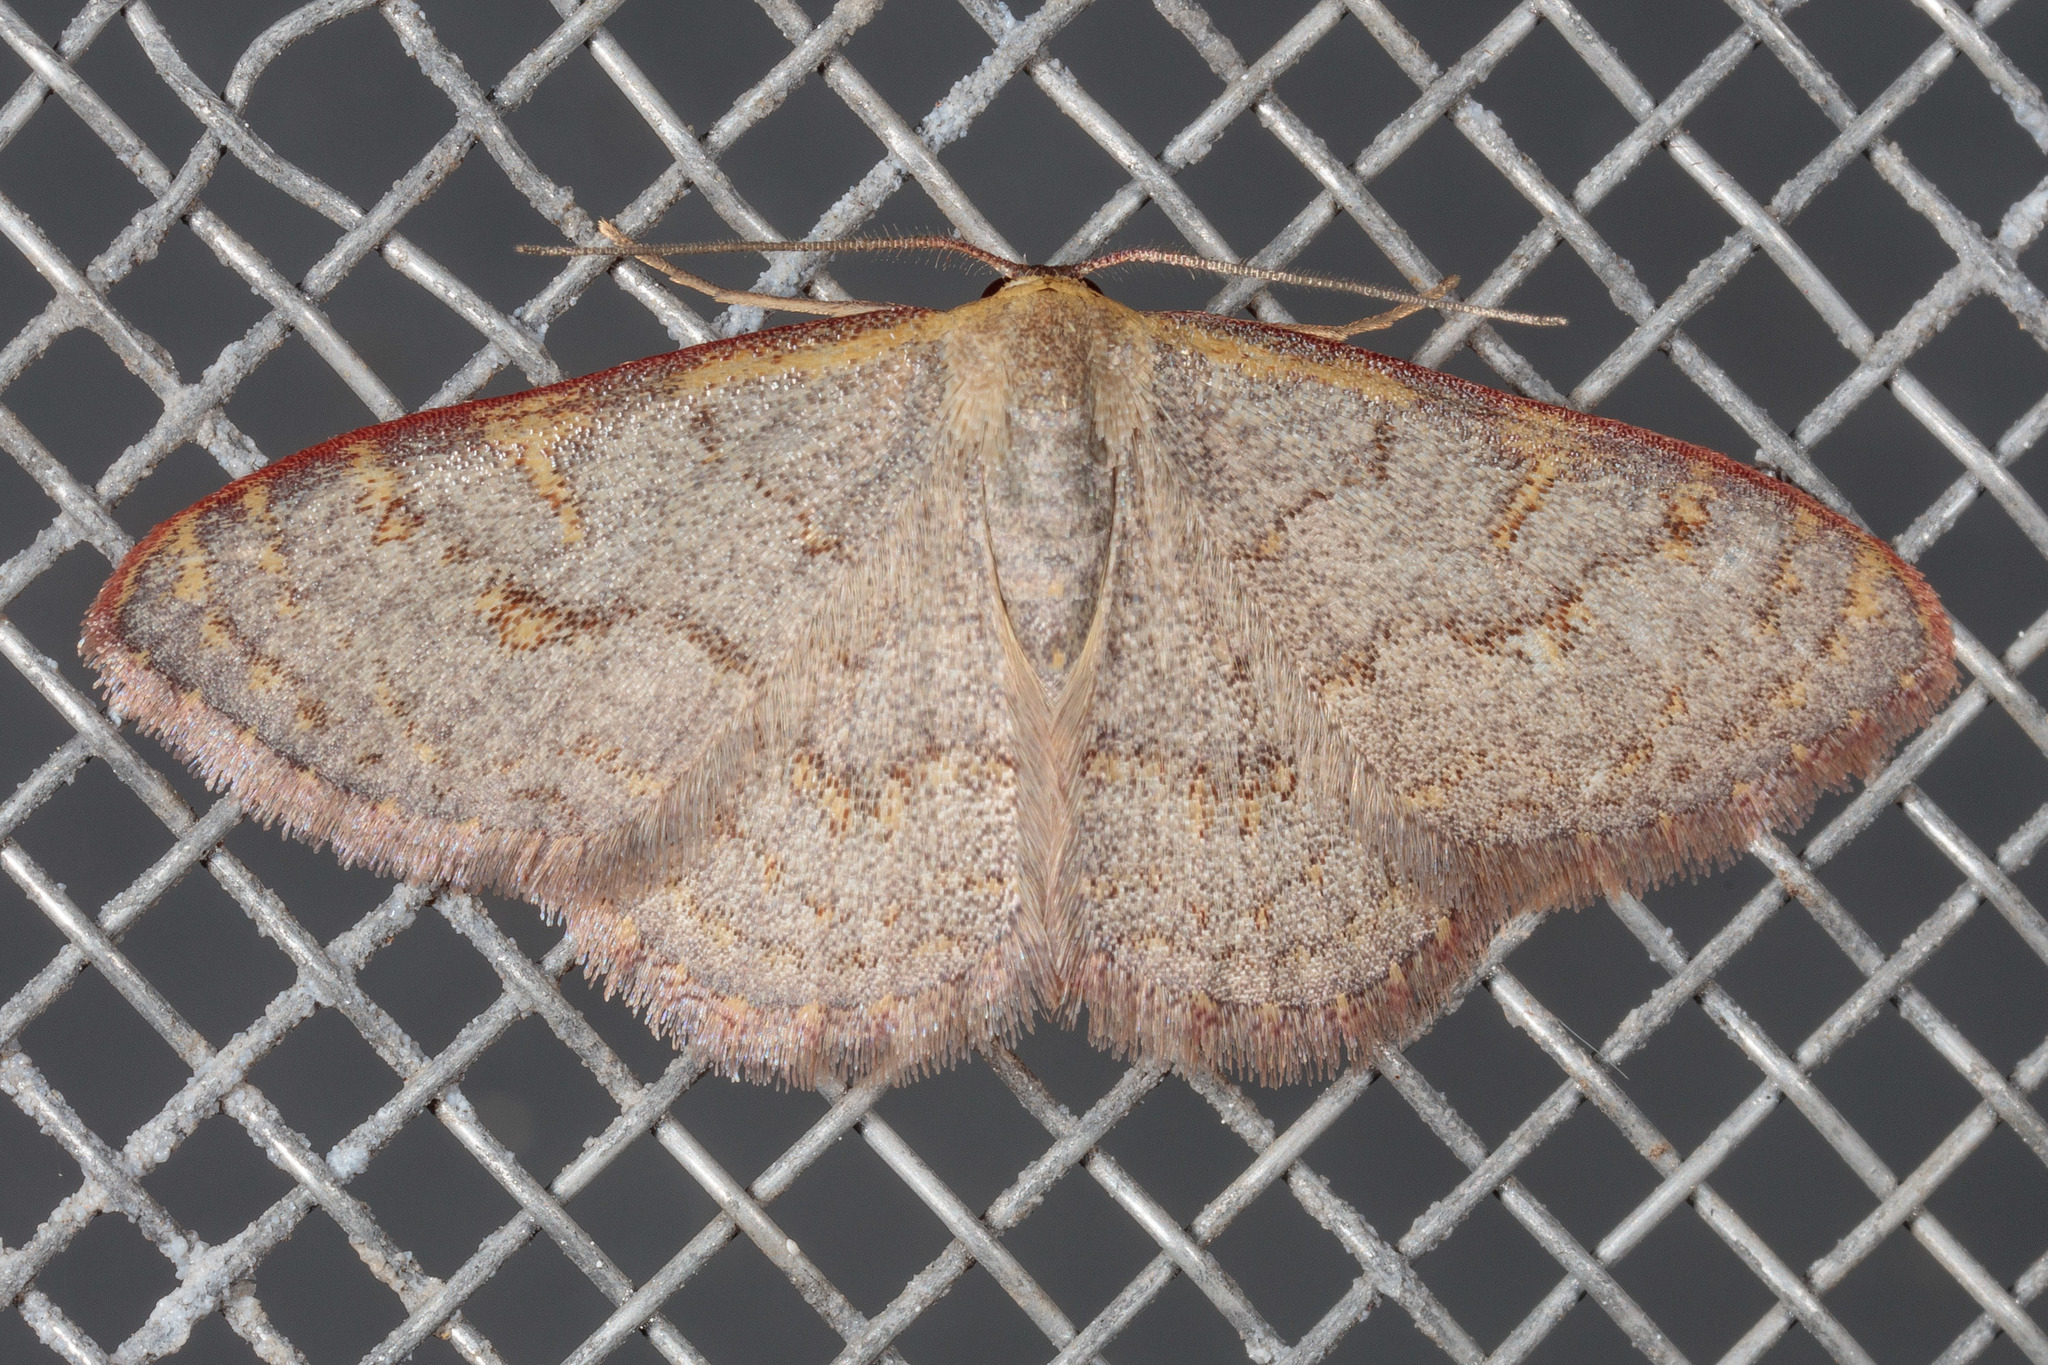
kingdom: Animalia
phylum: Arthropoda
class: Insecta
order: Lepidoptera
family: Geometridae
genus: Leptostales
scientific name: Leptostales pannaria
